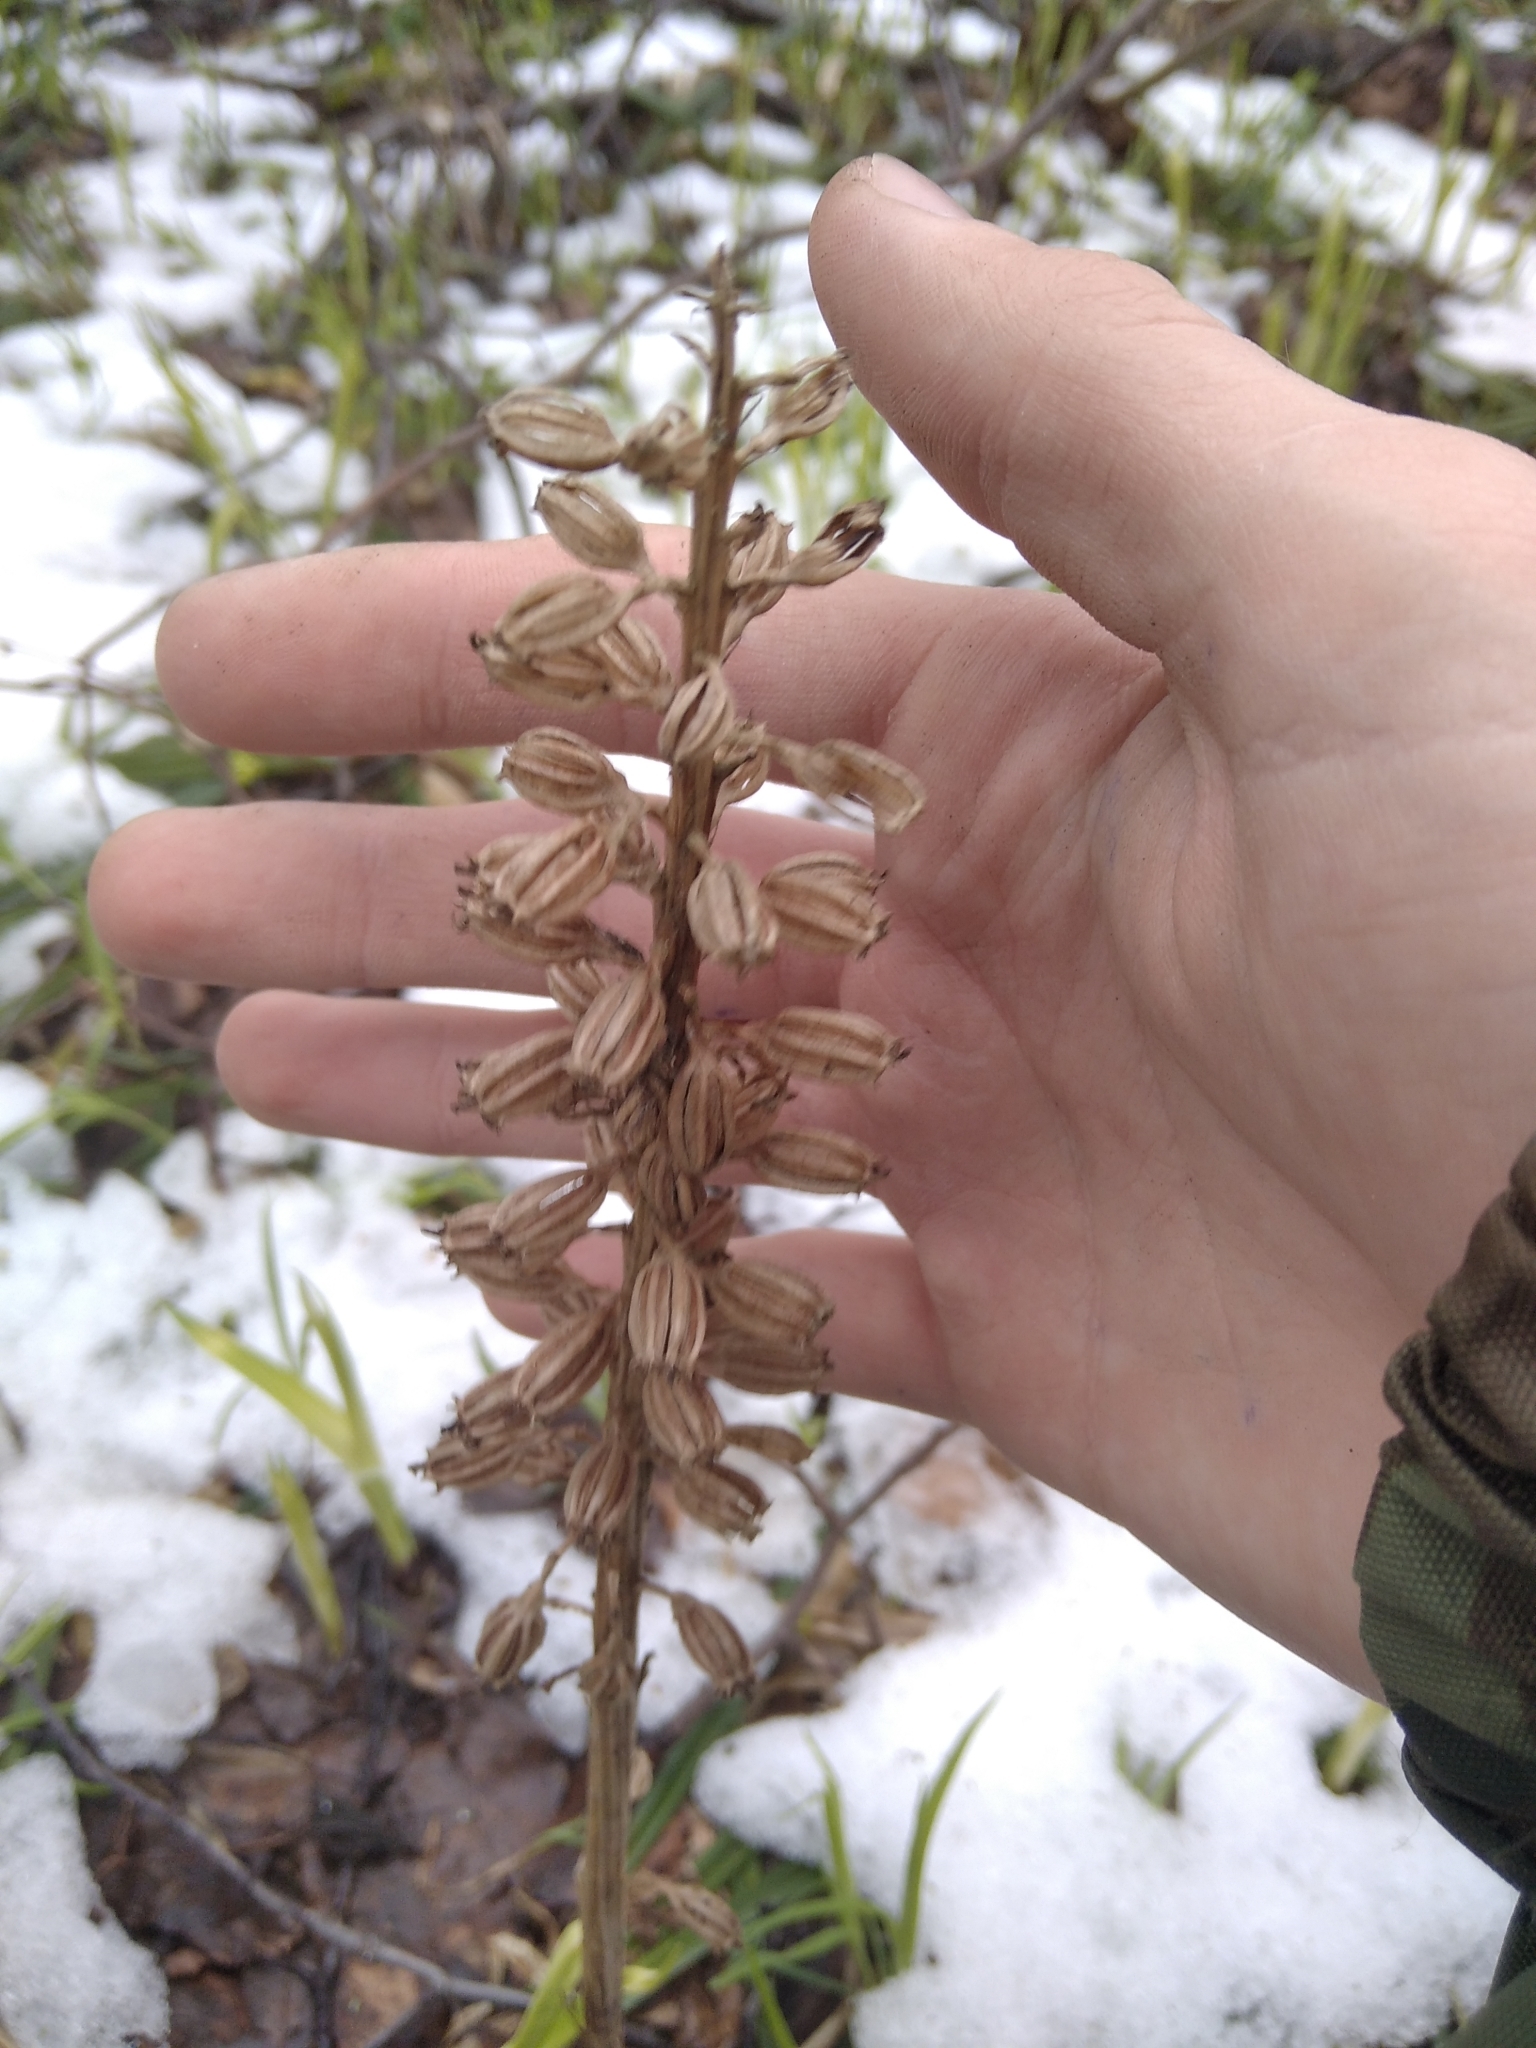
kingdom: Plantae
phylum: Tracheophyta
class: Liliopsida
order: Asparagales
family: Orchidaceae
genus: Neottia
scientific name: Neottia nidus-avis
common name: Bird's-nest orchid
